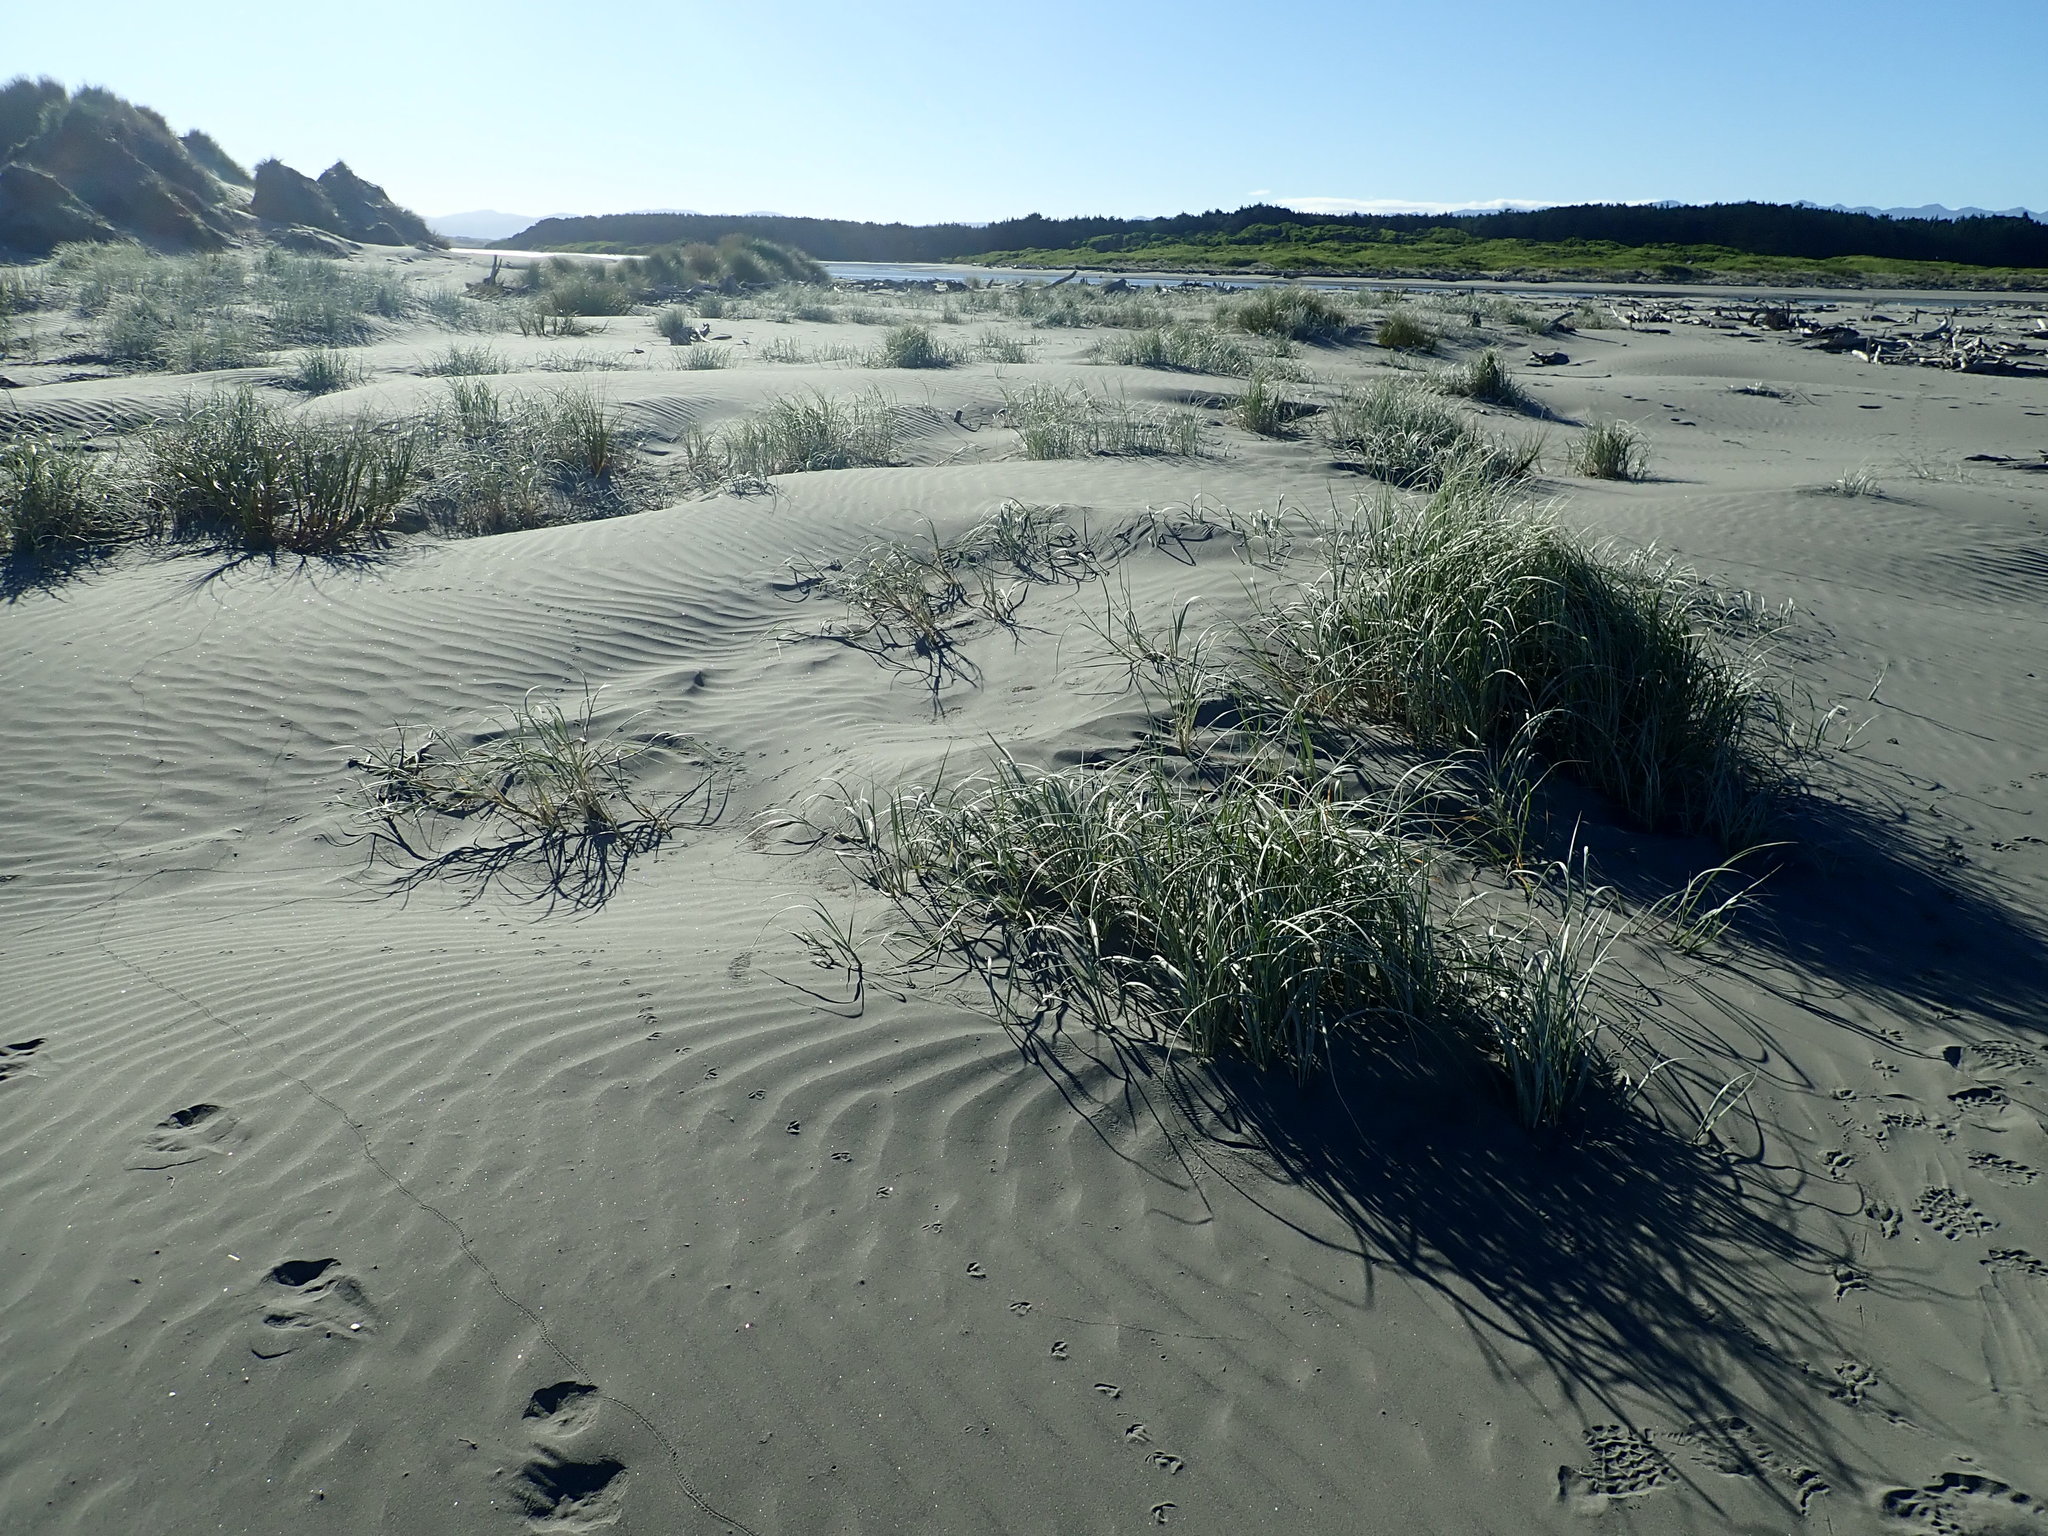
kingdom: Plantae
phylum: Tracheophyta
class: Liliopsida
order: Poales
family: Poaceae
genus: Spinifex
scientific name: Spinifex sericeus
